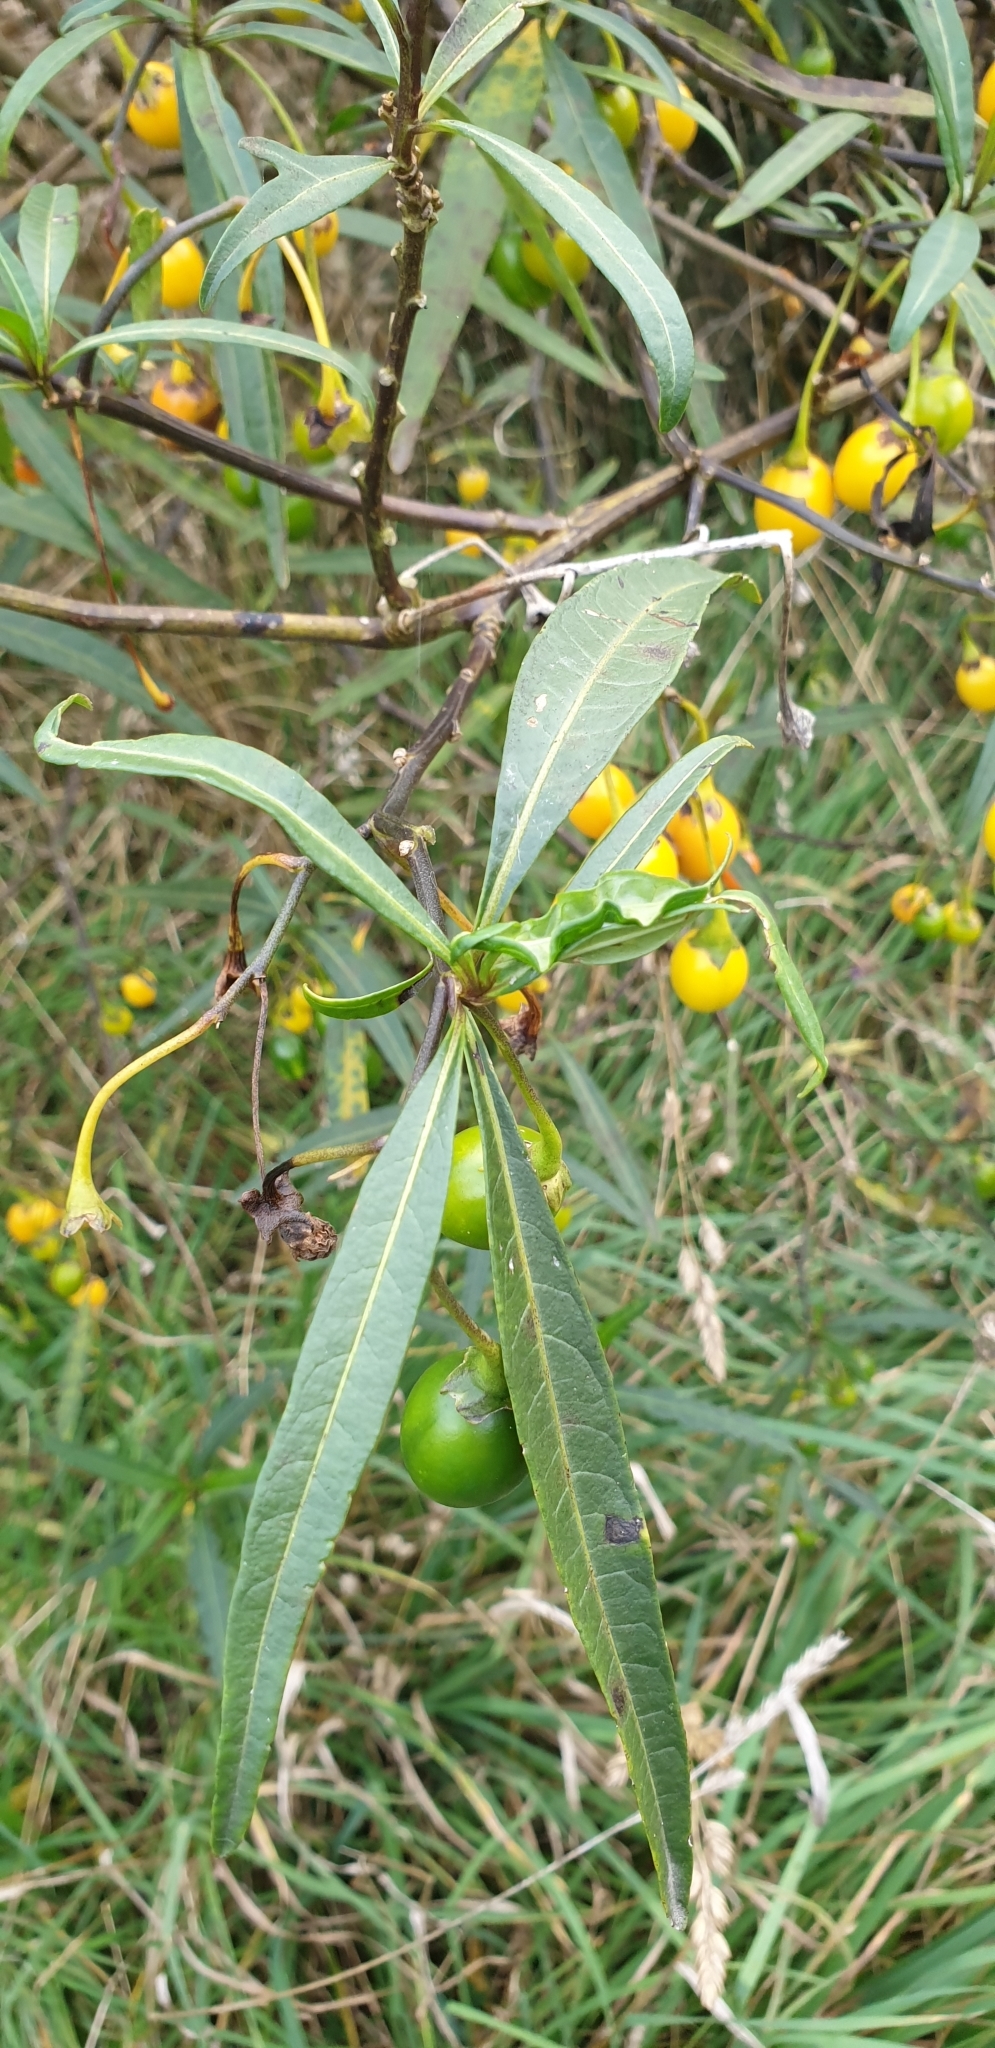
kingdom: Plantae
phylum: Tracheophyta
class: Magnoliopsida
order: Solanales
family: Solanaceae
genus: Solanum
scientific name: Solanum laciniatum
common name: Kangaroo-apple
